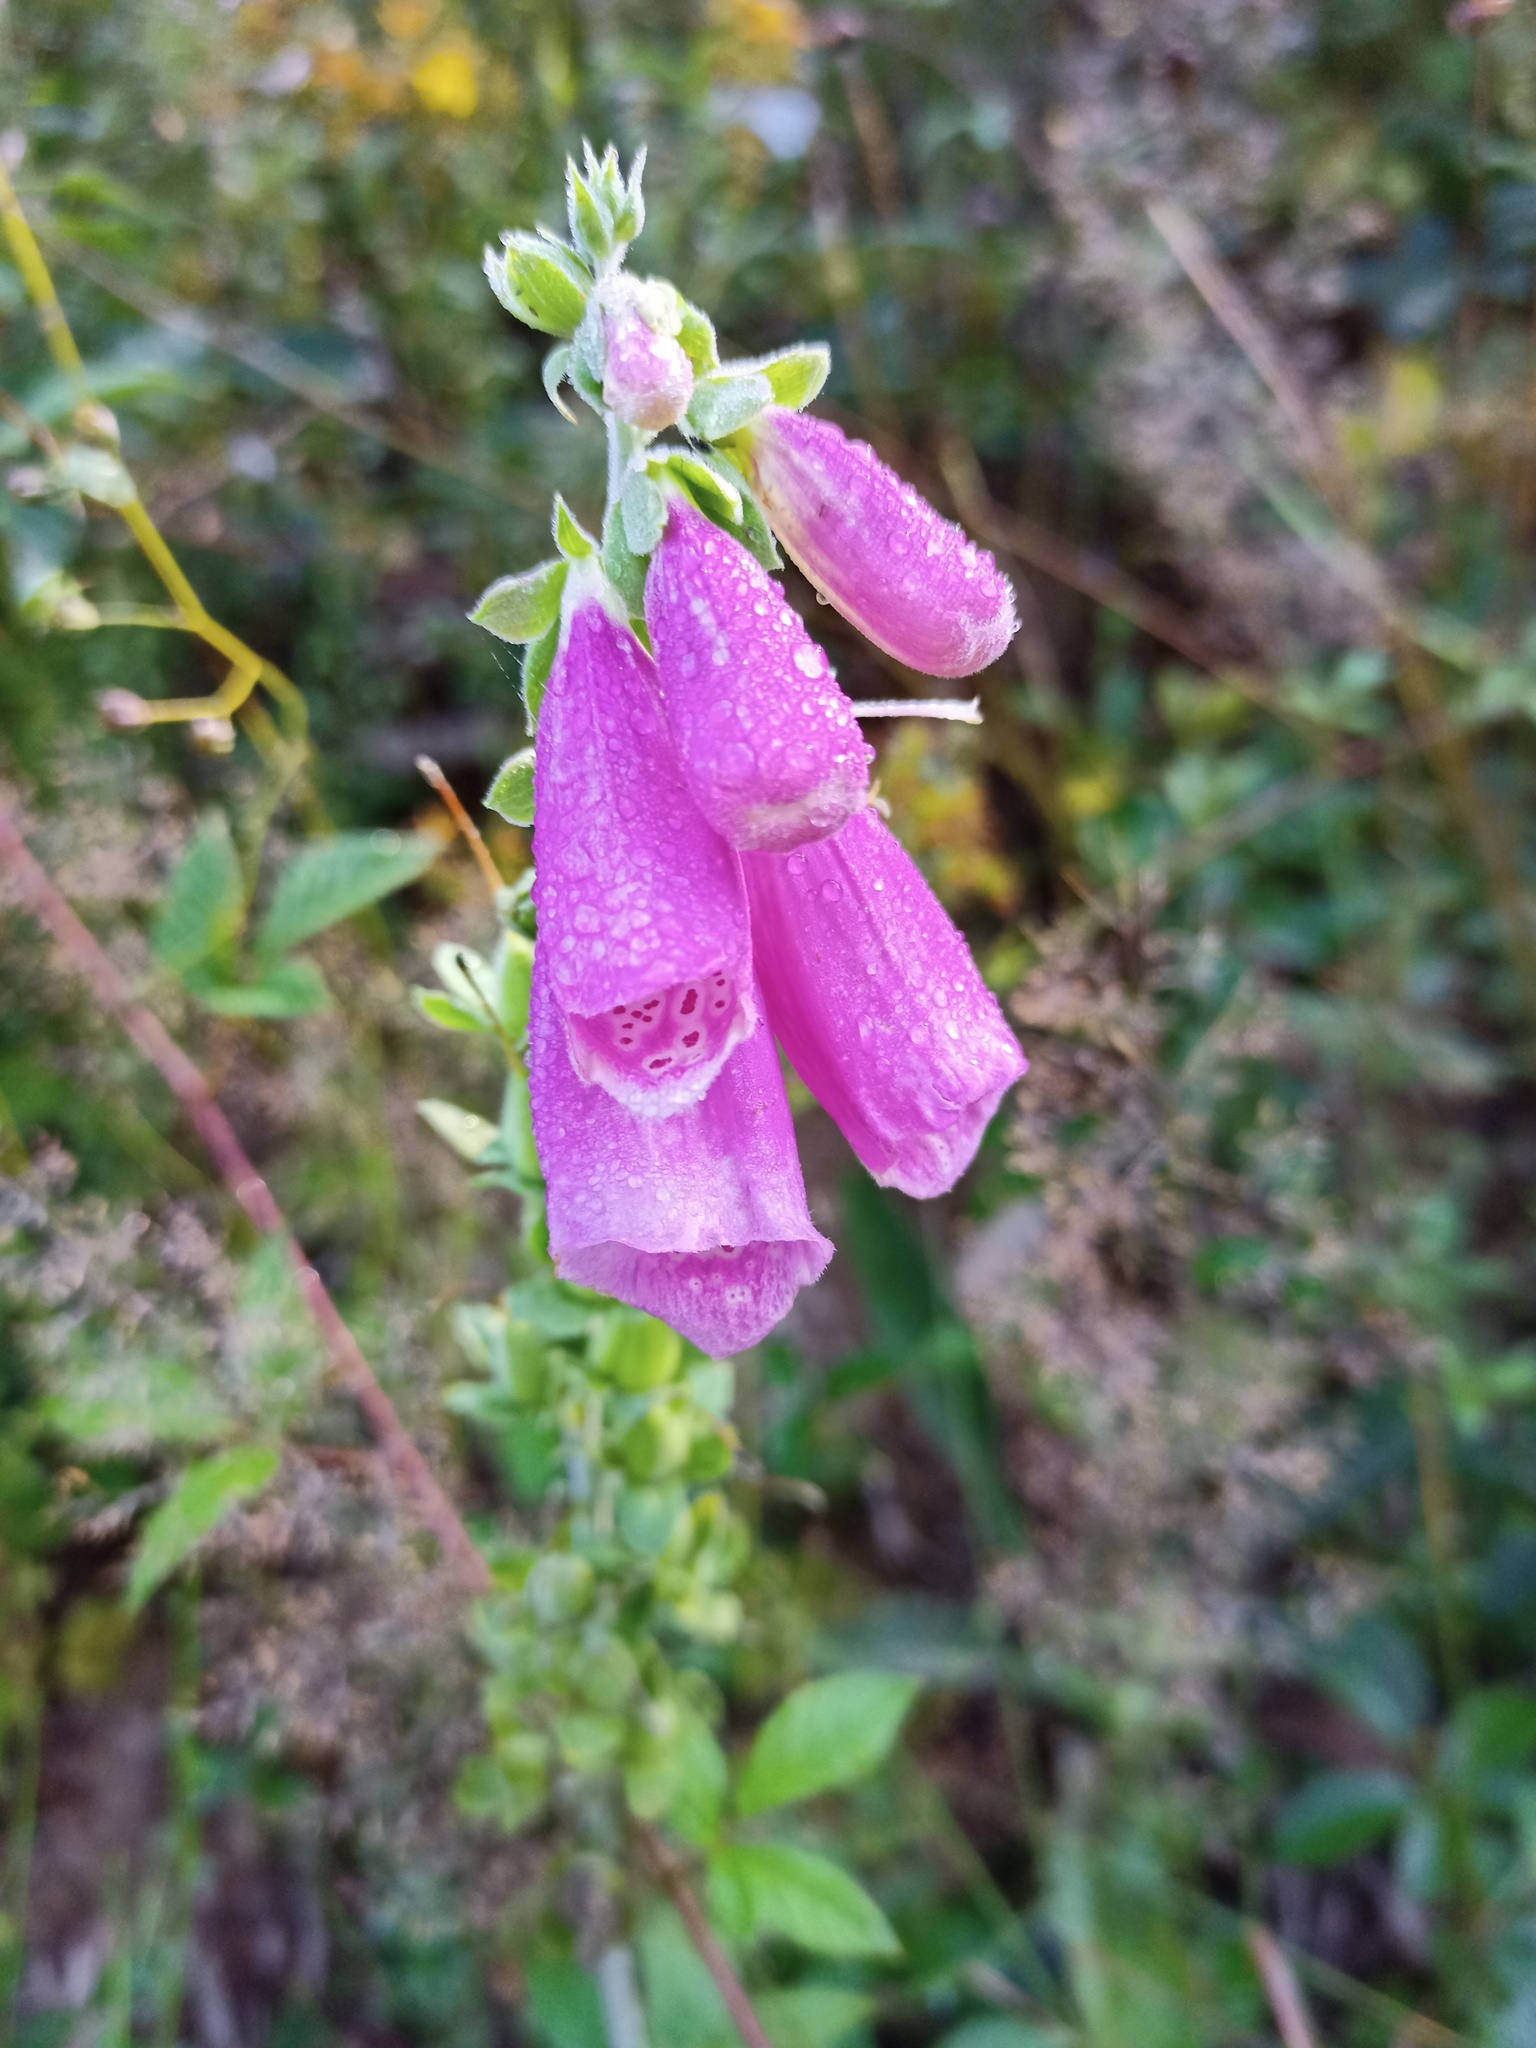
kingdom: Plantae
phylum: Tracheophyta
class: Magnoliopsida
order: Lamiales
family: Plantaginaceae
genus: Digitalis
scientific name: Digitalis purpurea
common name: Foxglove
